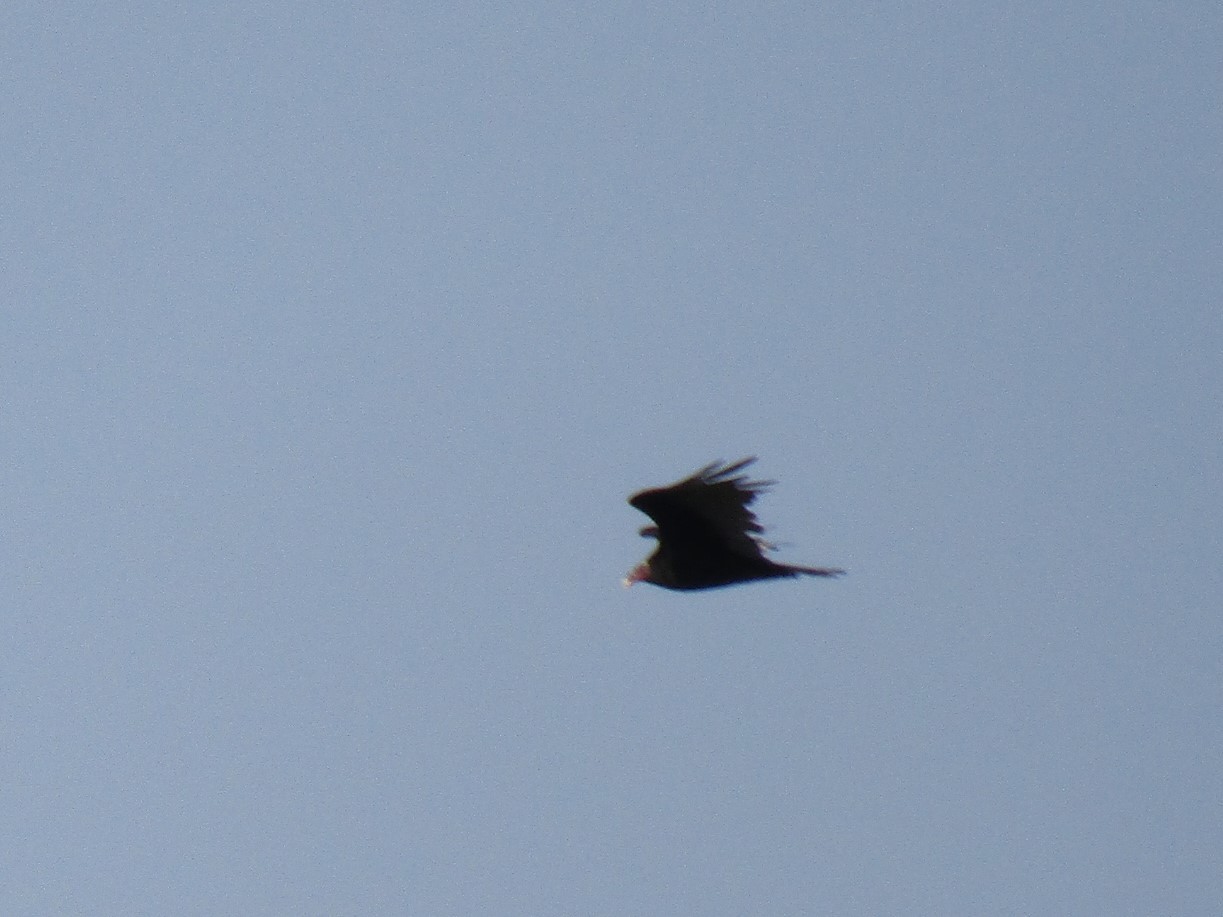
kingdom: Animalia
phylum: Chordata
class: Aves
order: Accipitriformes
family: Cathartidae
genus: Cathartes
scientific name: Cathartes aura
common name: Turkey vulture
